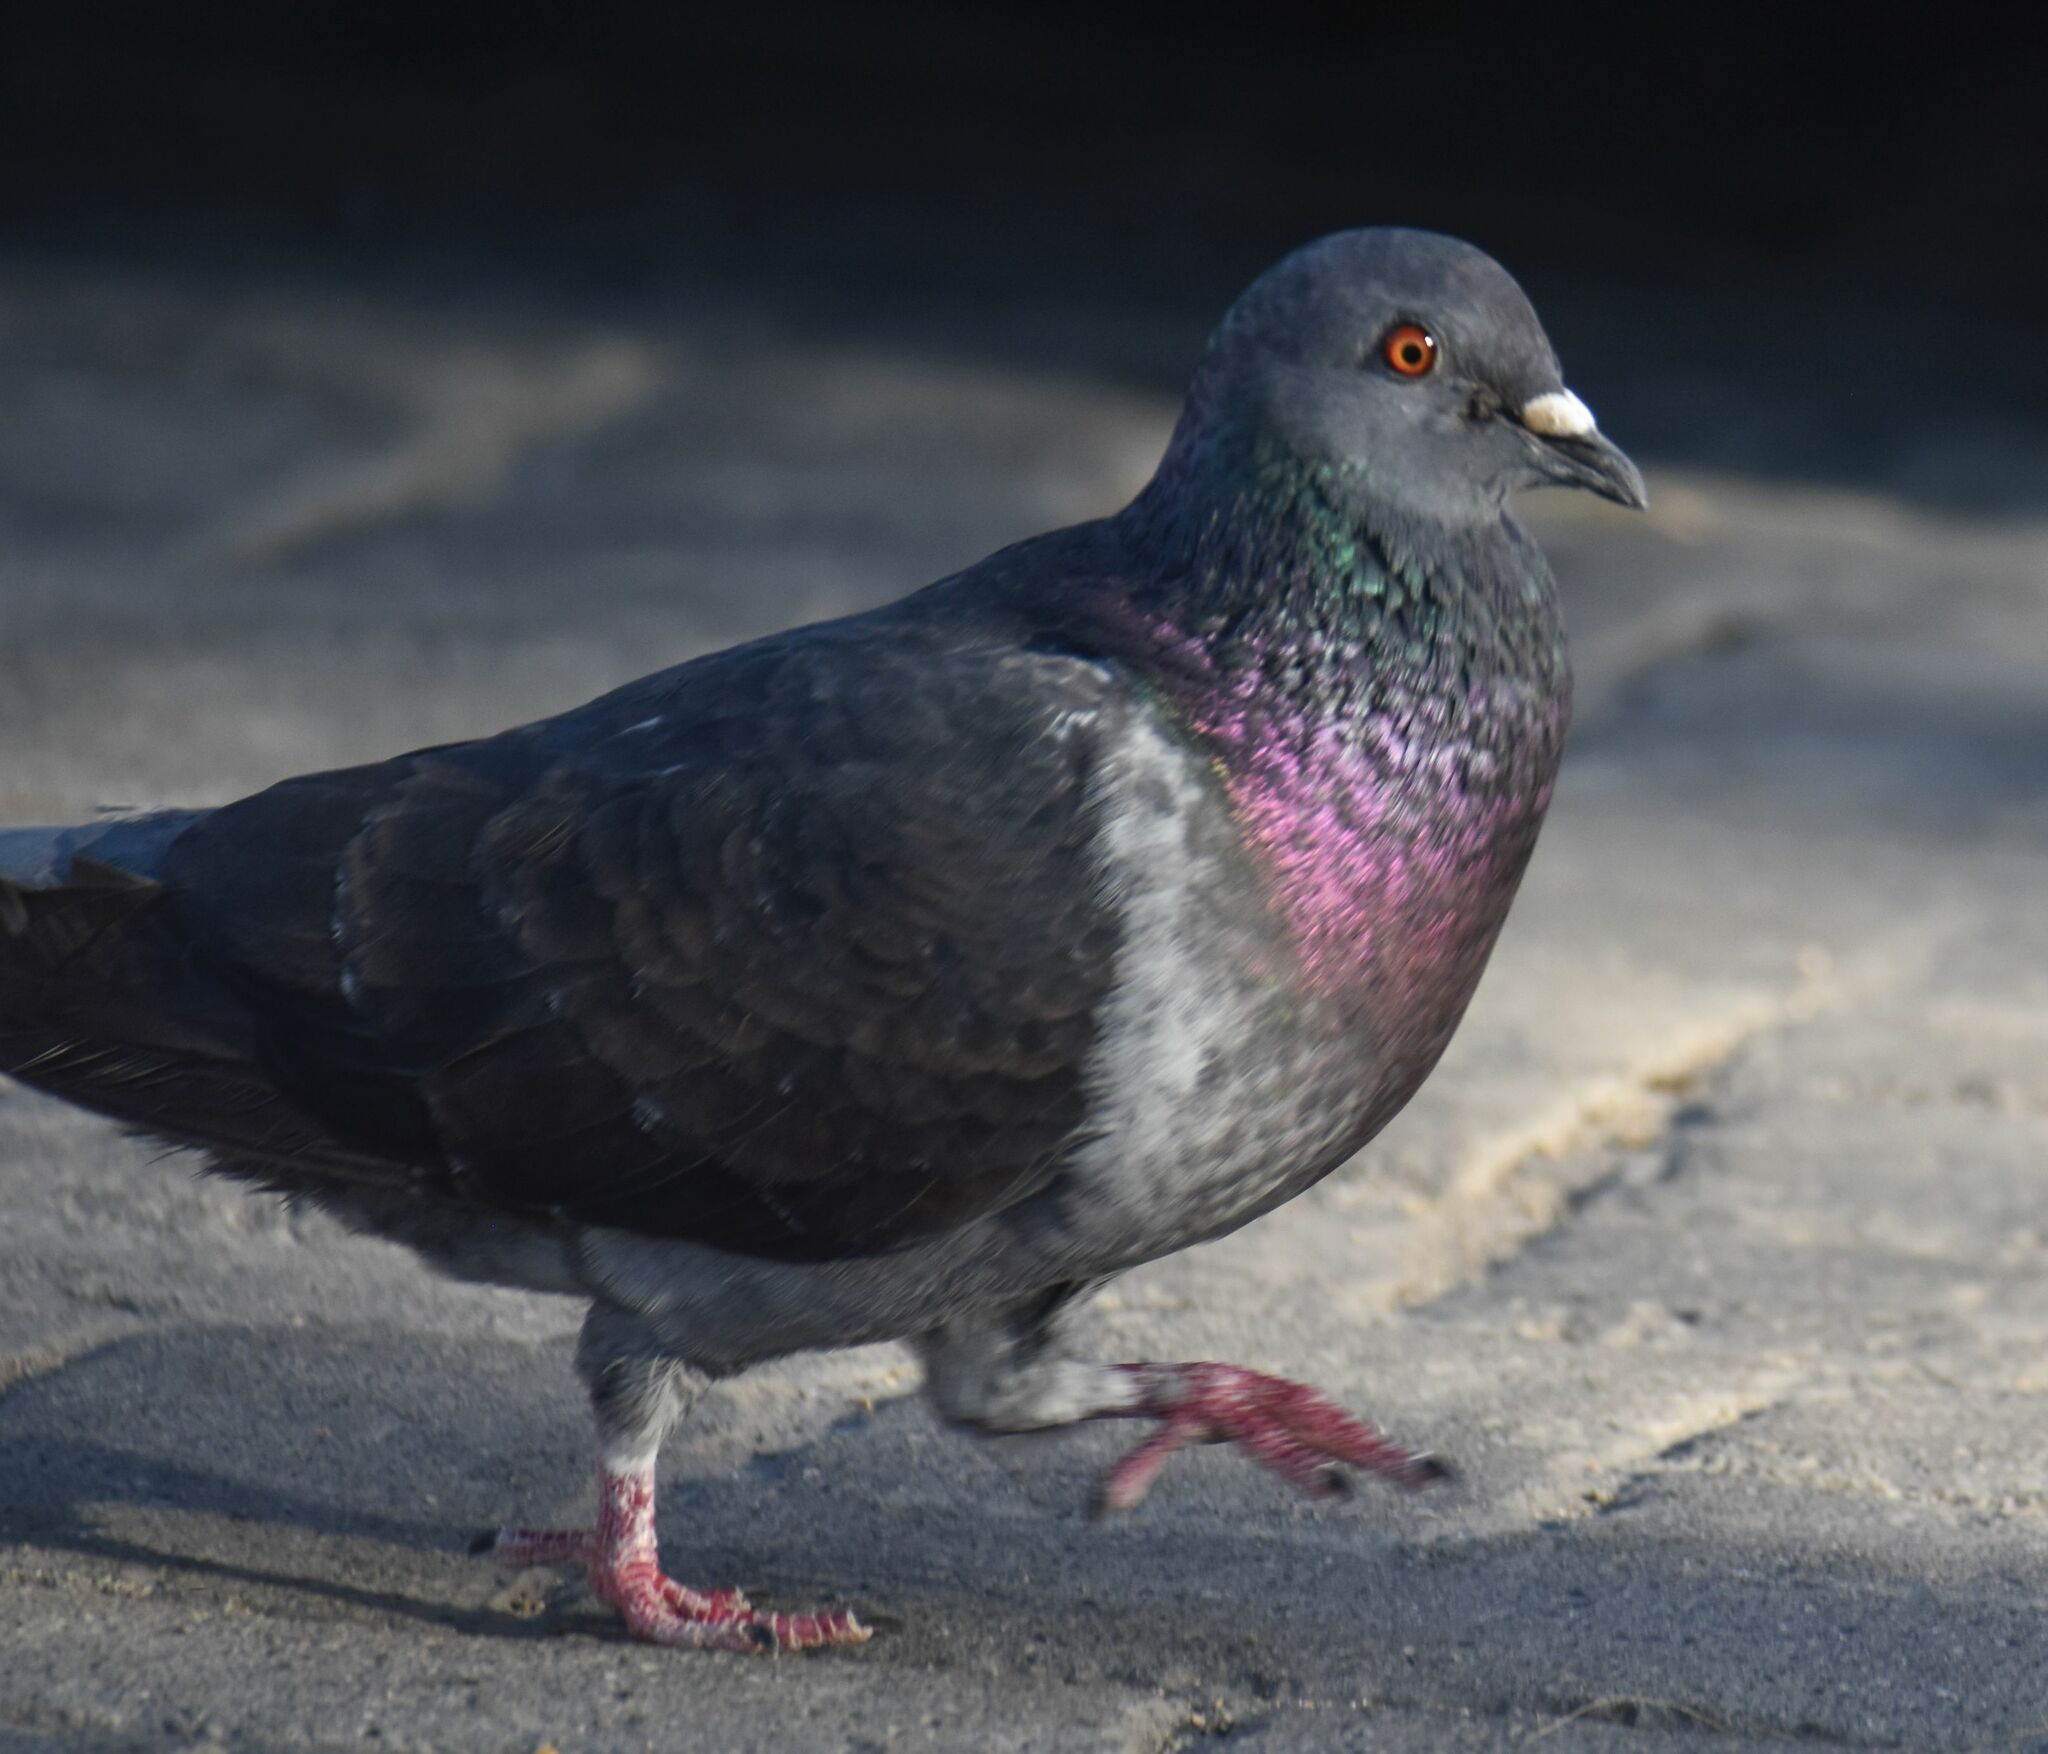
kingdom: Animalia
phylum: Chordata
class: Aves
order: Columbiformes
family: Columbidae
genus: Columba
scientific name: Columba livia
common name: Rock pigeon
